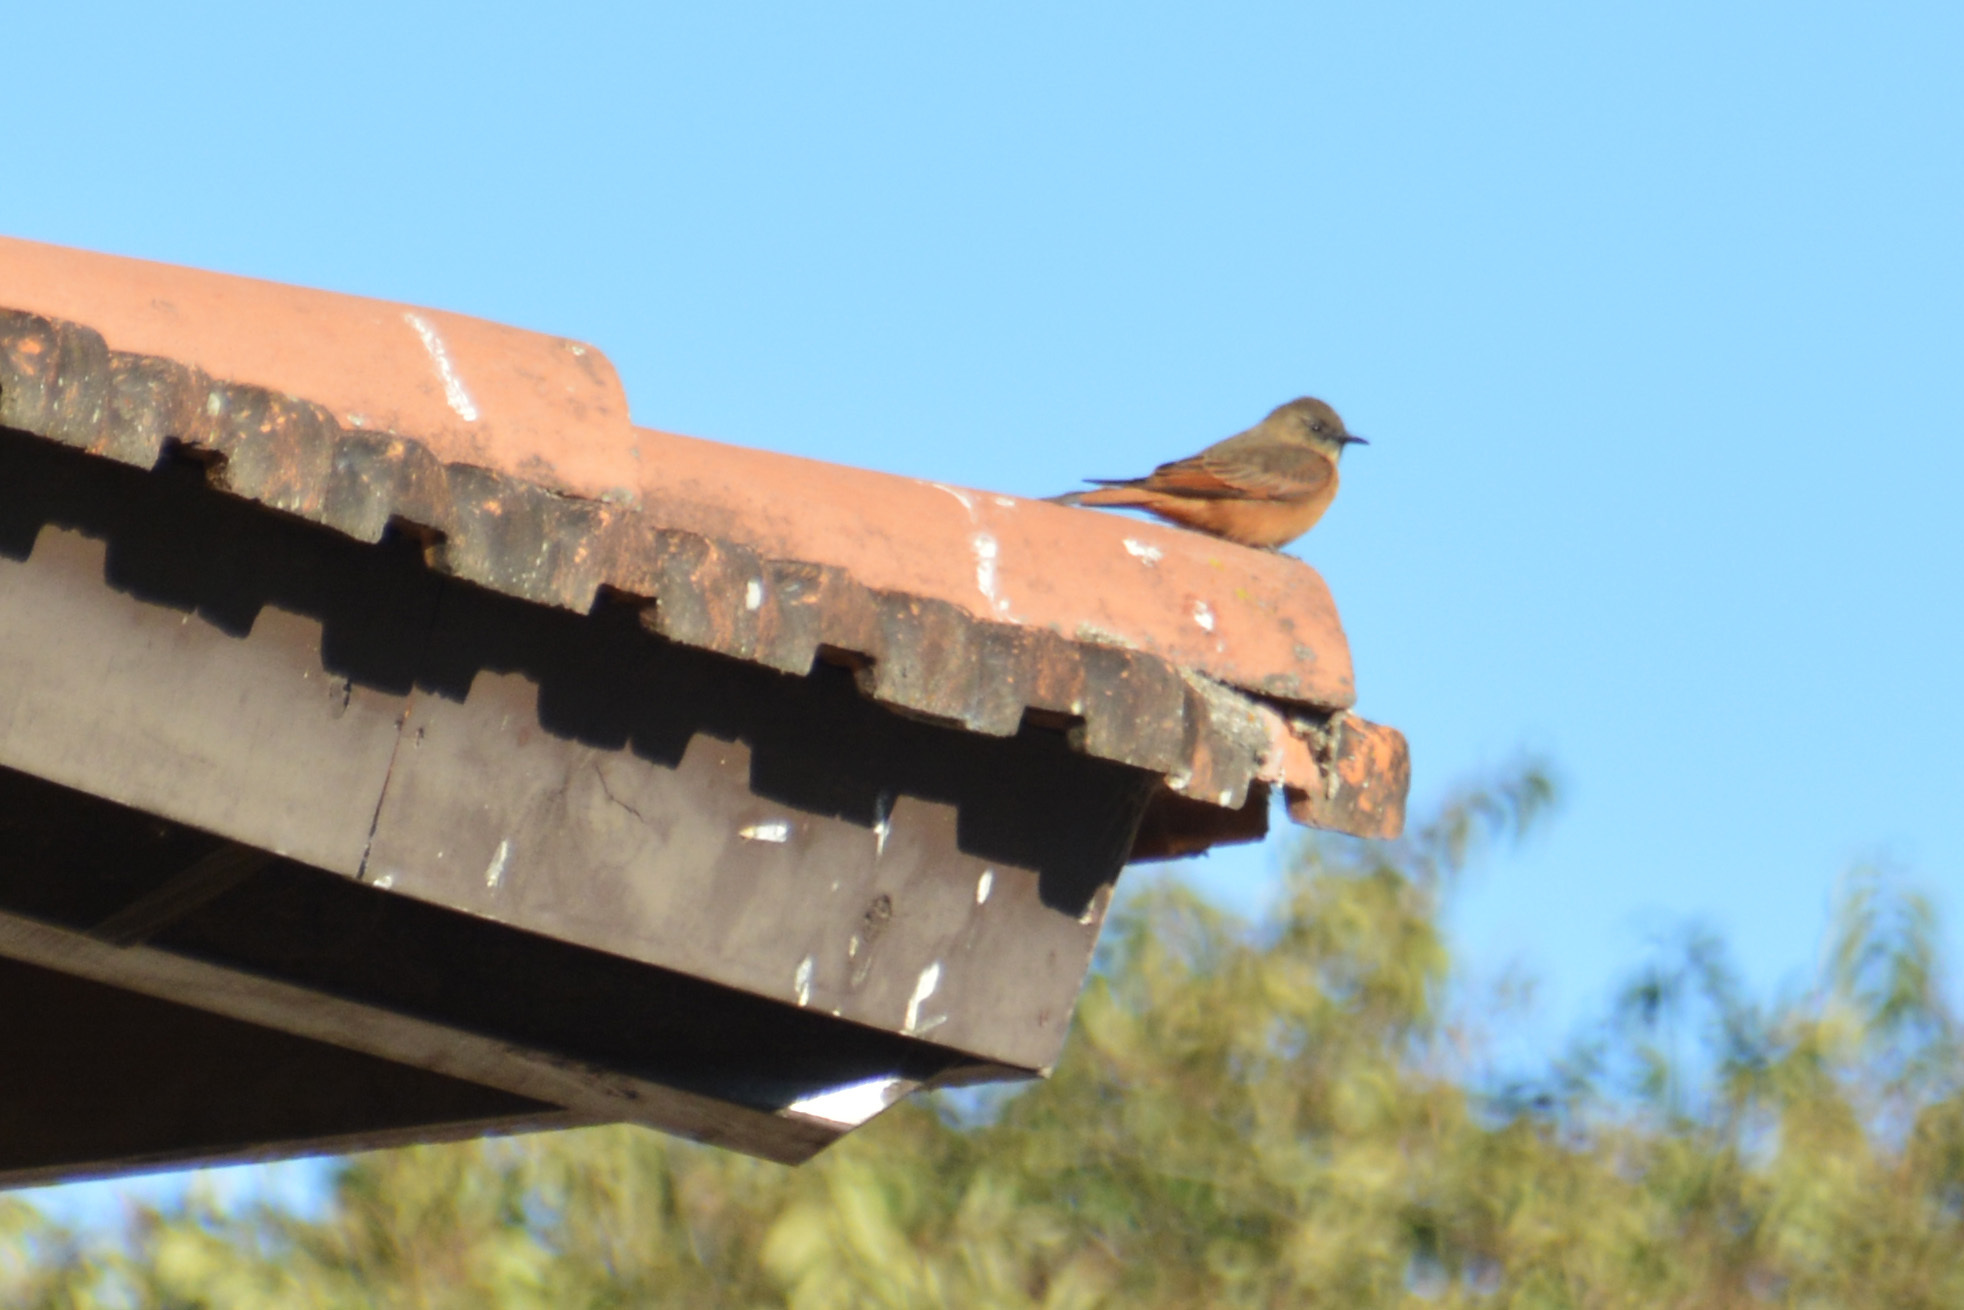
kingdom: Animalia
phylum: Chordata
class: Aves
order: Passeriformes
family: Tyrannidae
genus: Hirundinea
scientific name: Hirundinea ferruginea
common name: Cliff flycatcher
